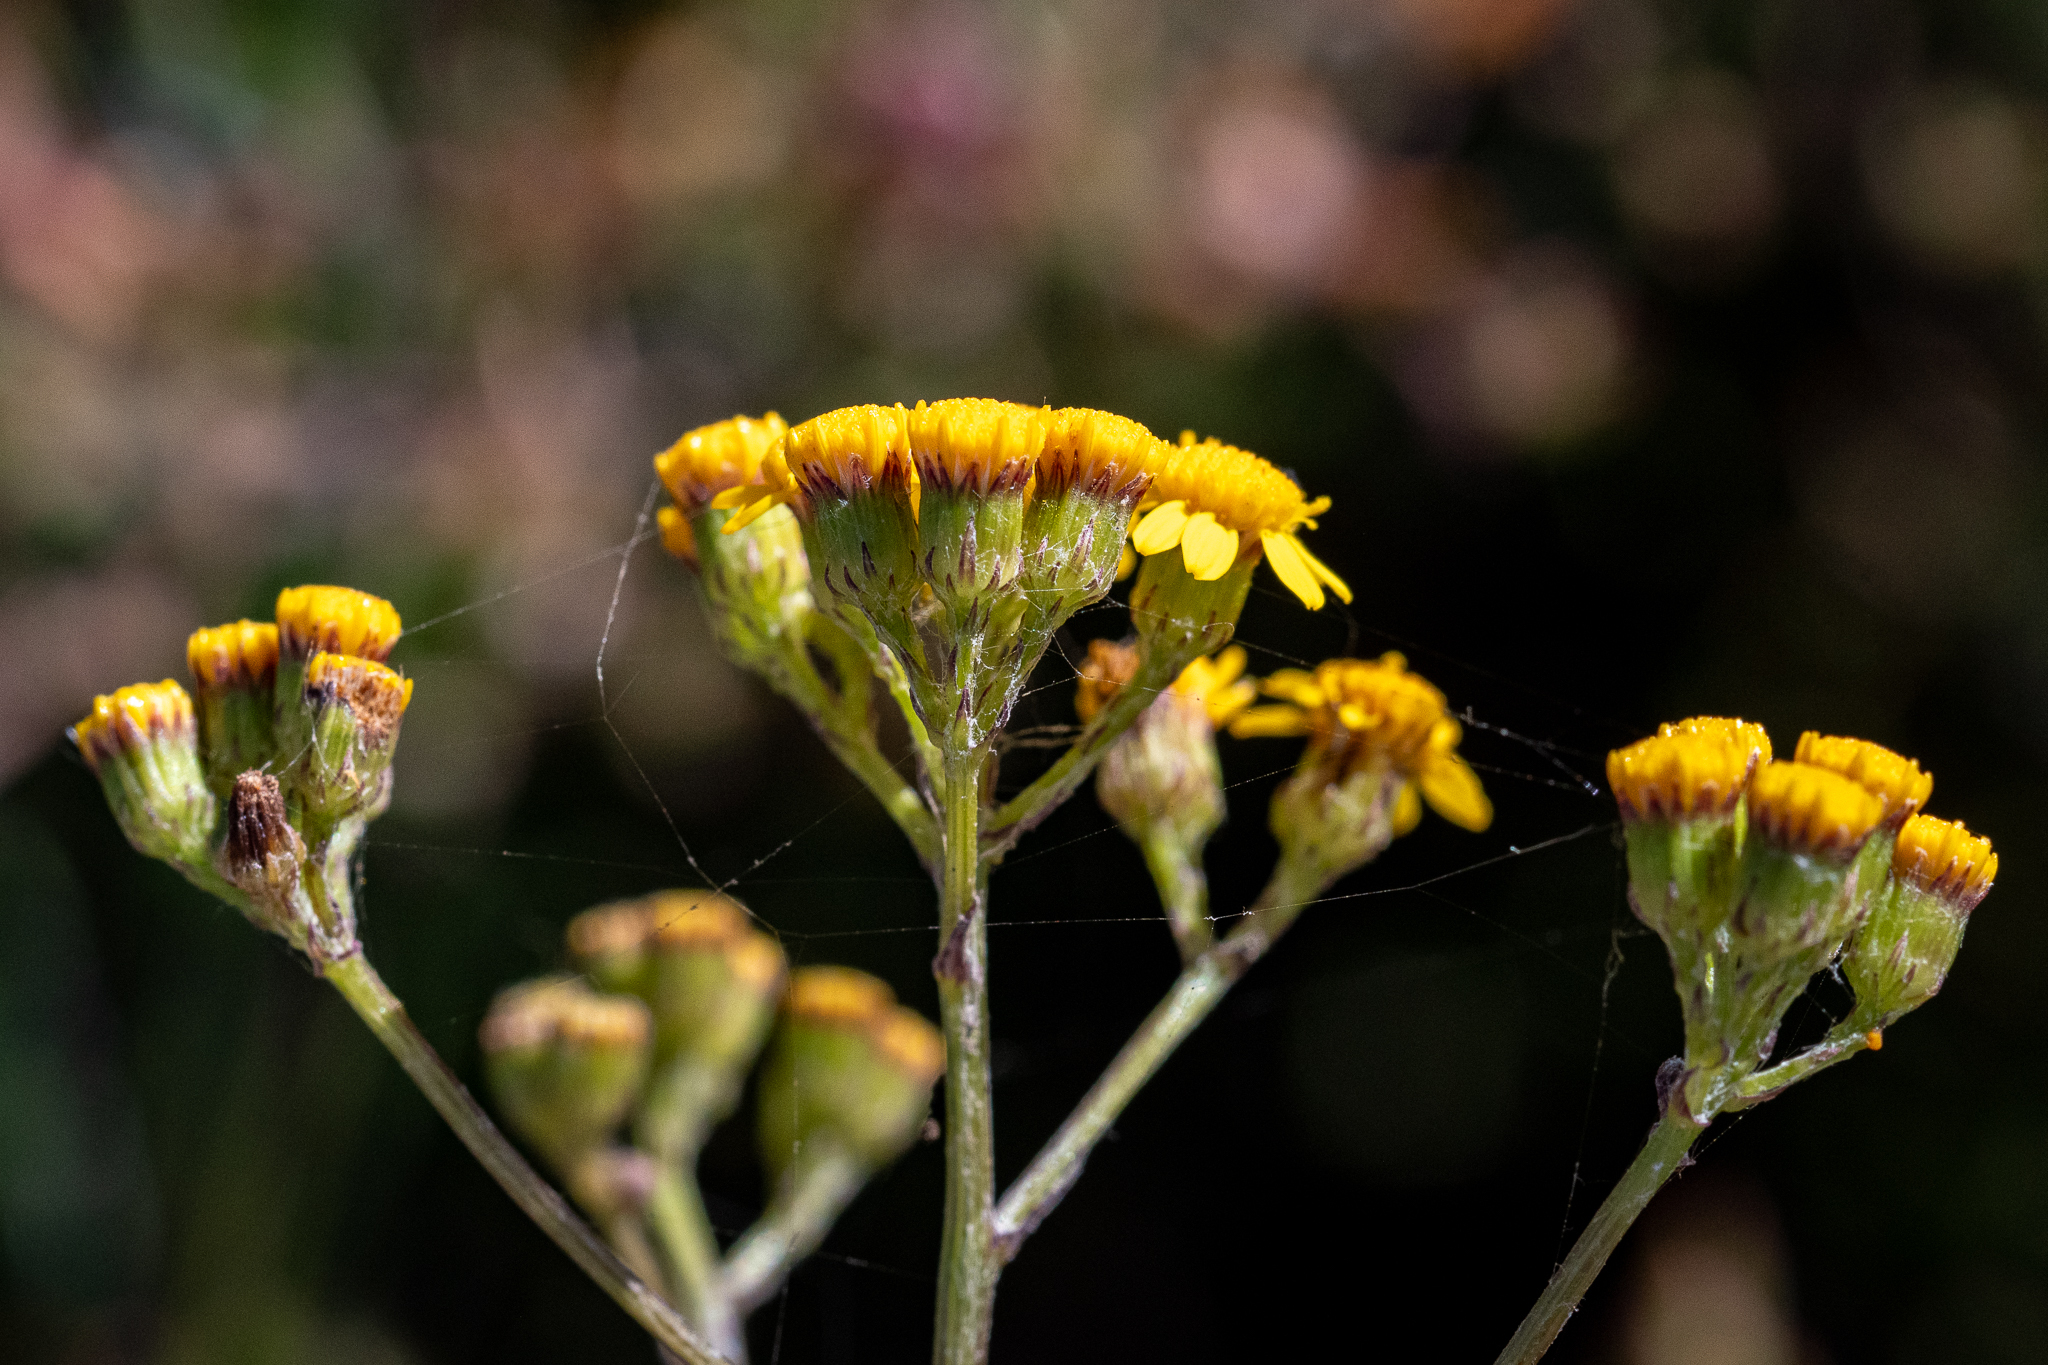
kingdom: Plantae
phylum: Tracheophyta
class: Magnoliopsida
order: Asterales
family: Asteraceae
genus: Senecio
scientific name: Senecio burchellii
